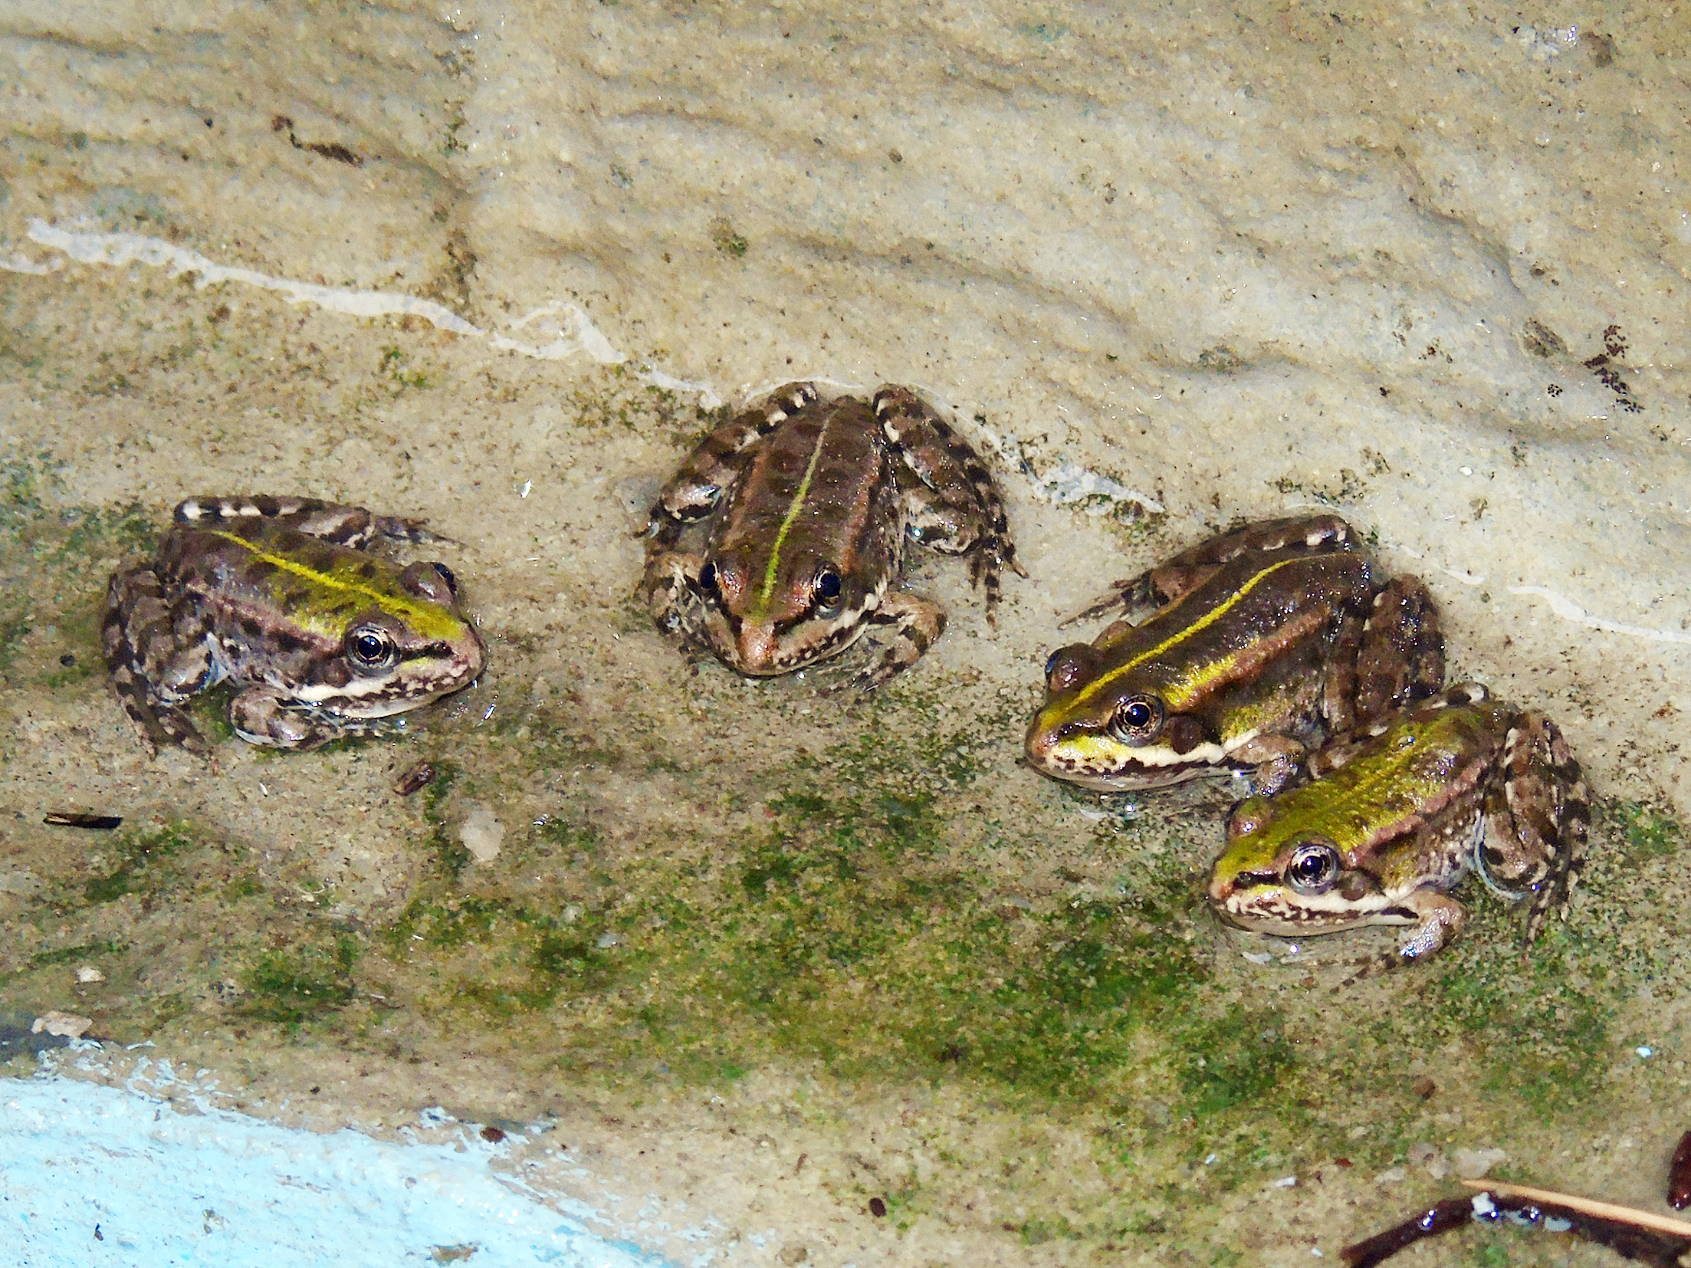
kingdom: Animalia
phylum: Chordata
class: Amphibia
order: Anura
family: Ranidae
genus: Pelophylax
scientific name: Pelophylax ridibundus
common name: Marsh frog
